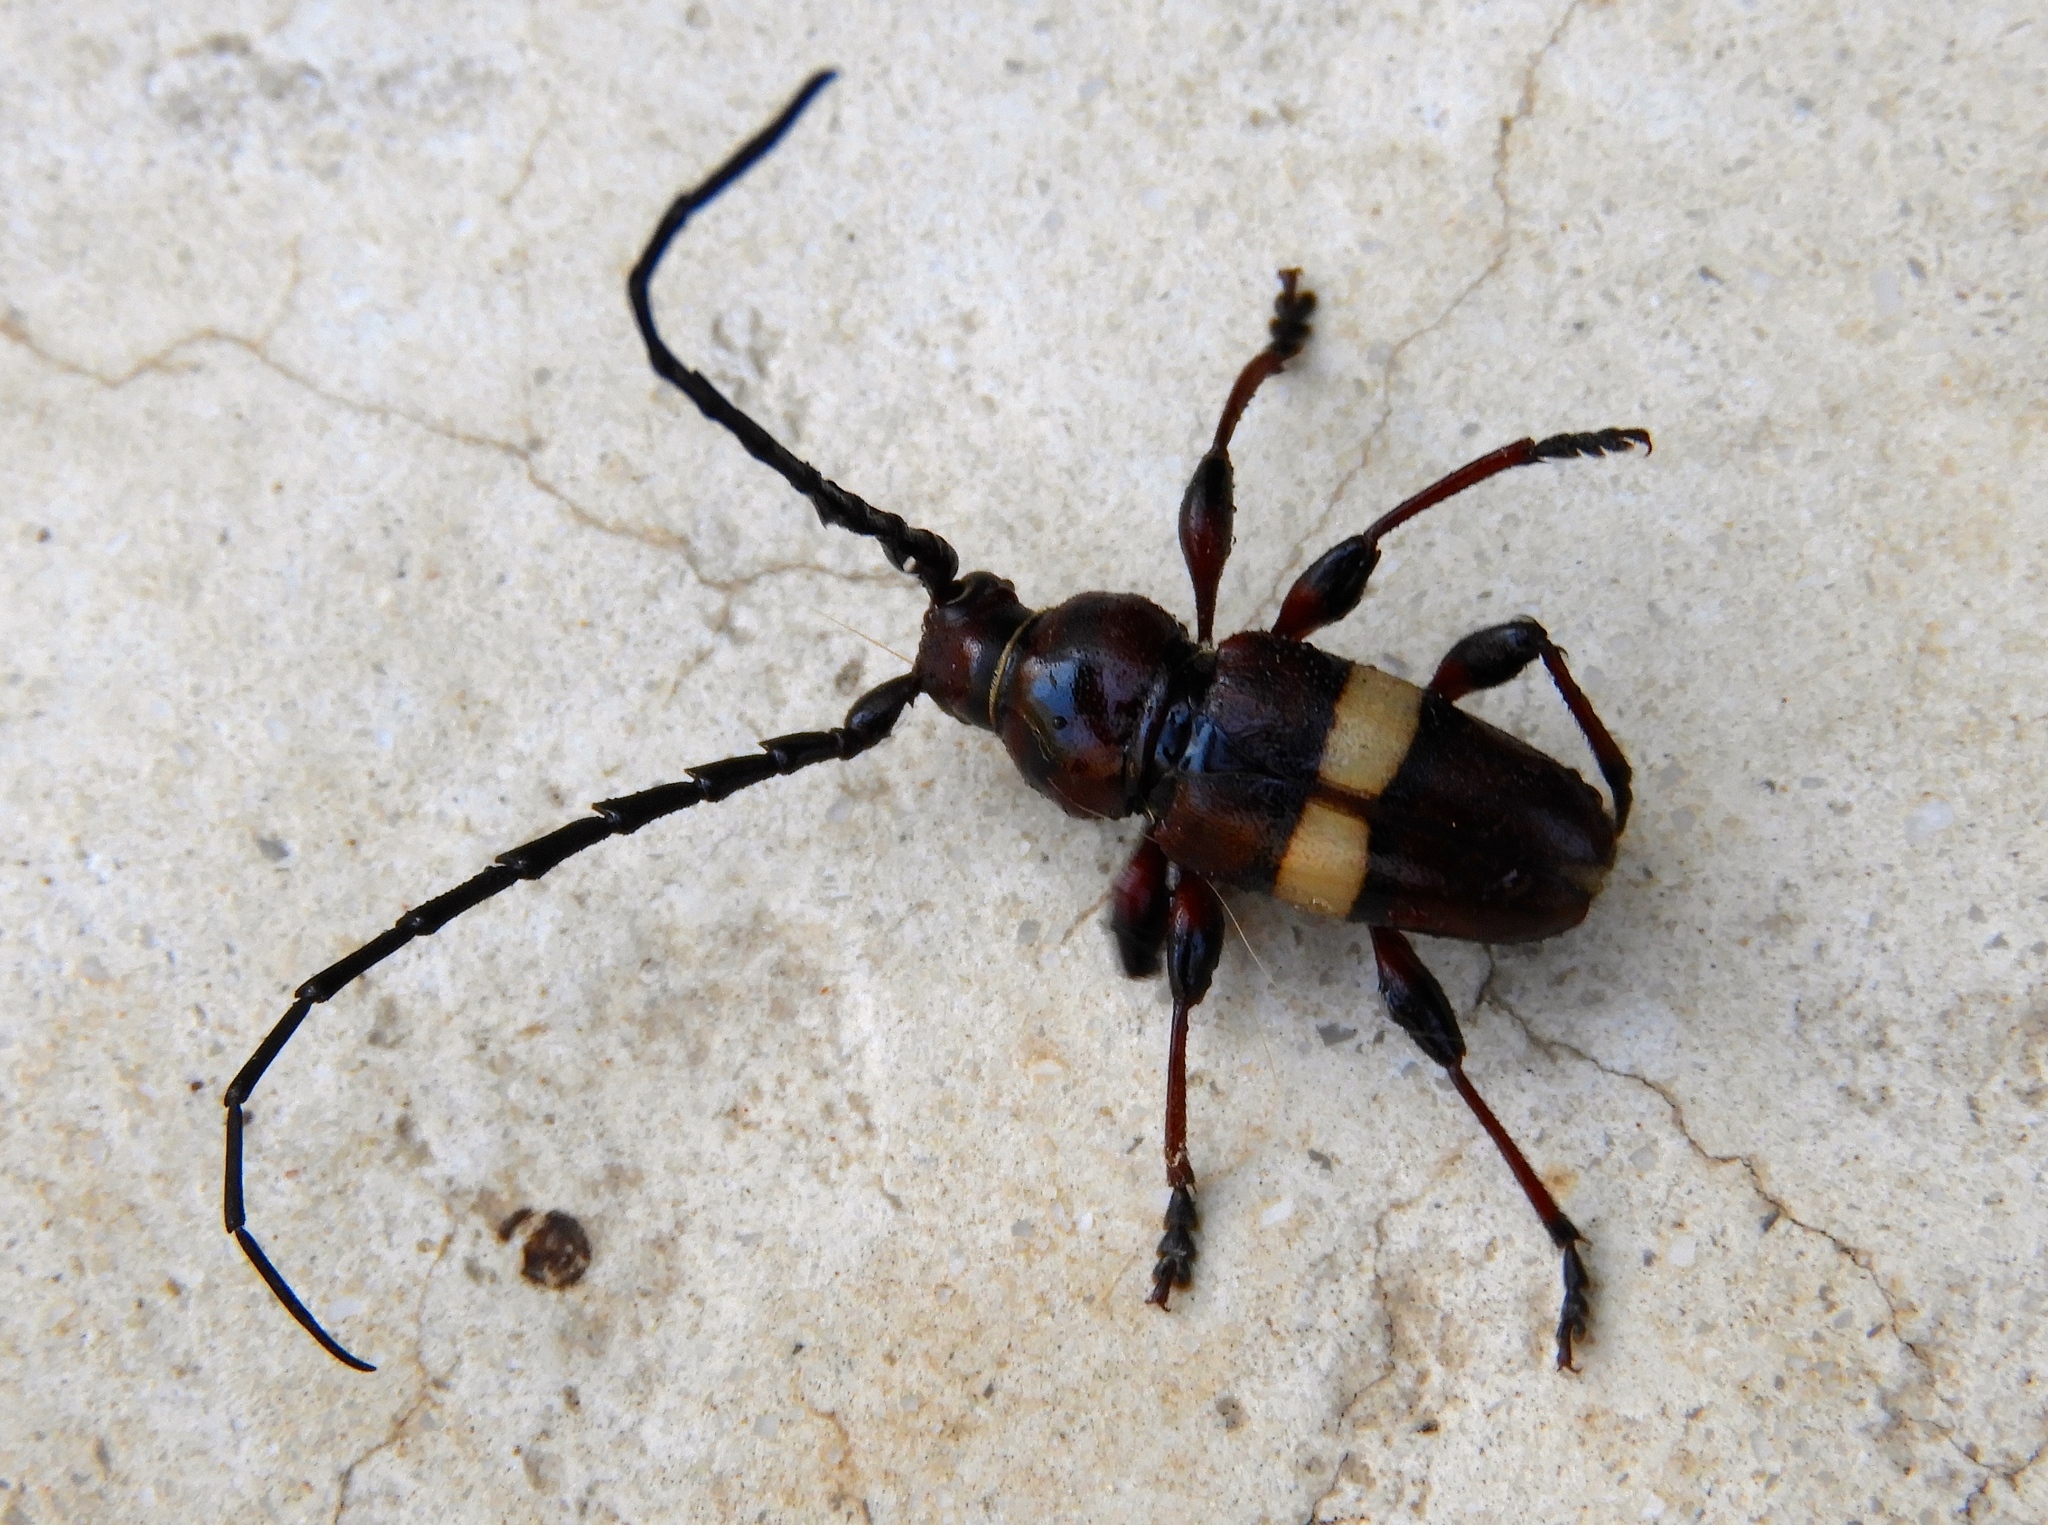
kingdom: Animalia
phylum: Arthropoda
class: Insecta
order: Coleoptera
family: Cerambycidae
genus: Lissonotus
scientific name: Lissonotus flavocinctus
